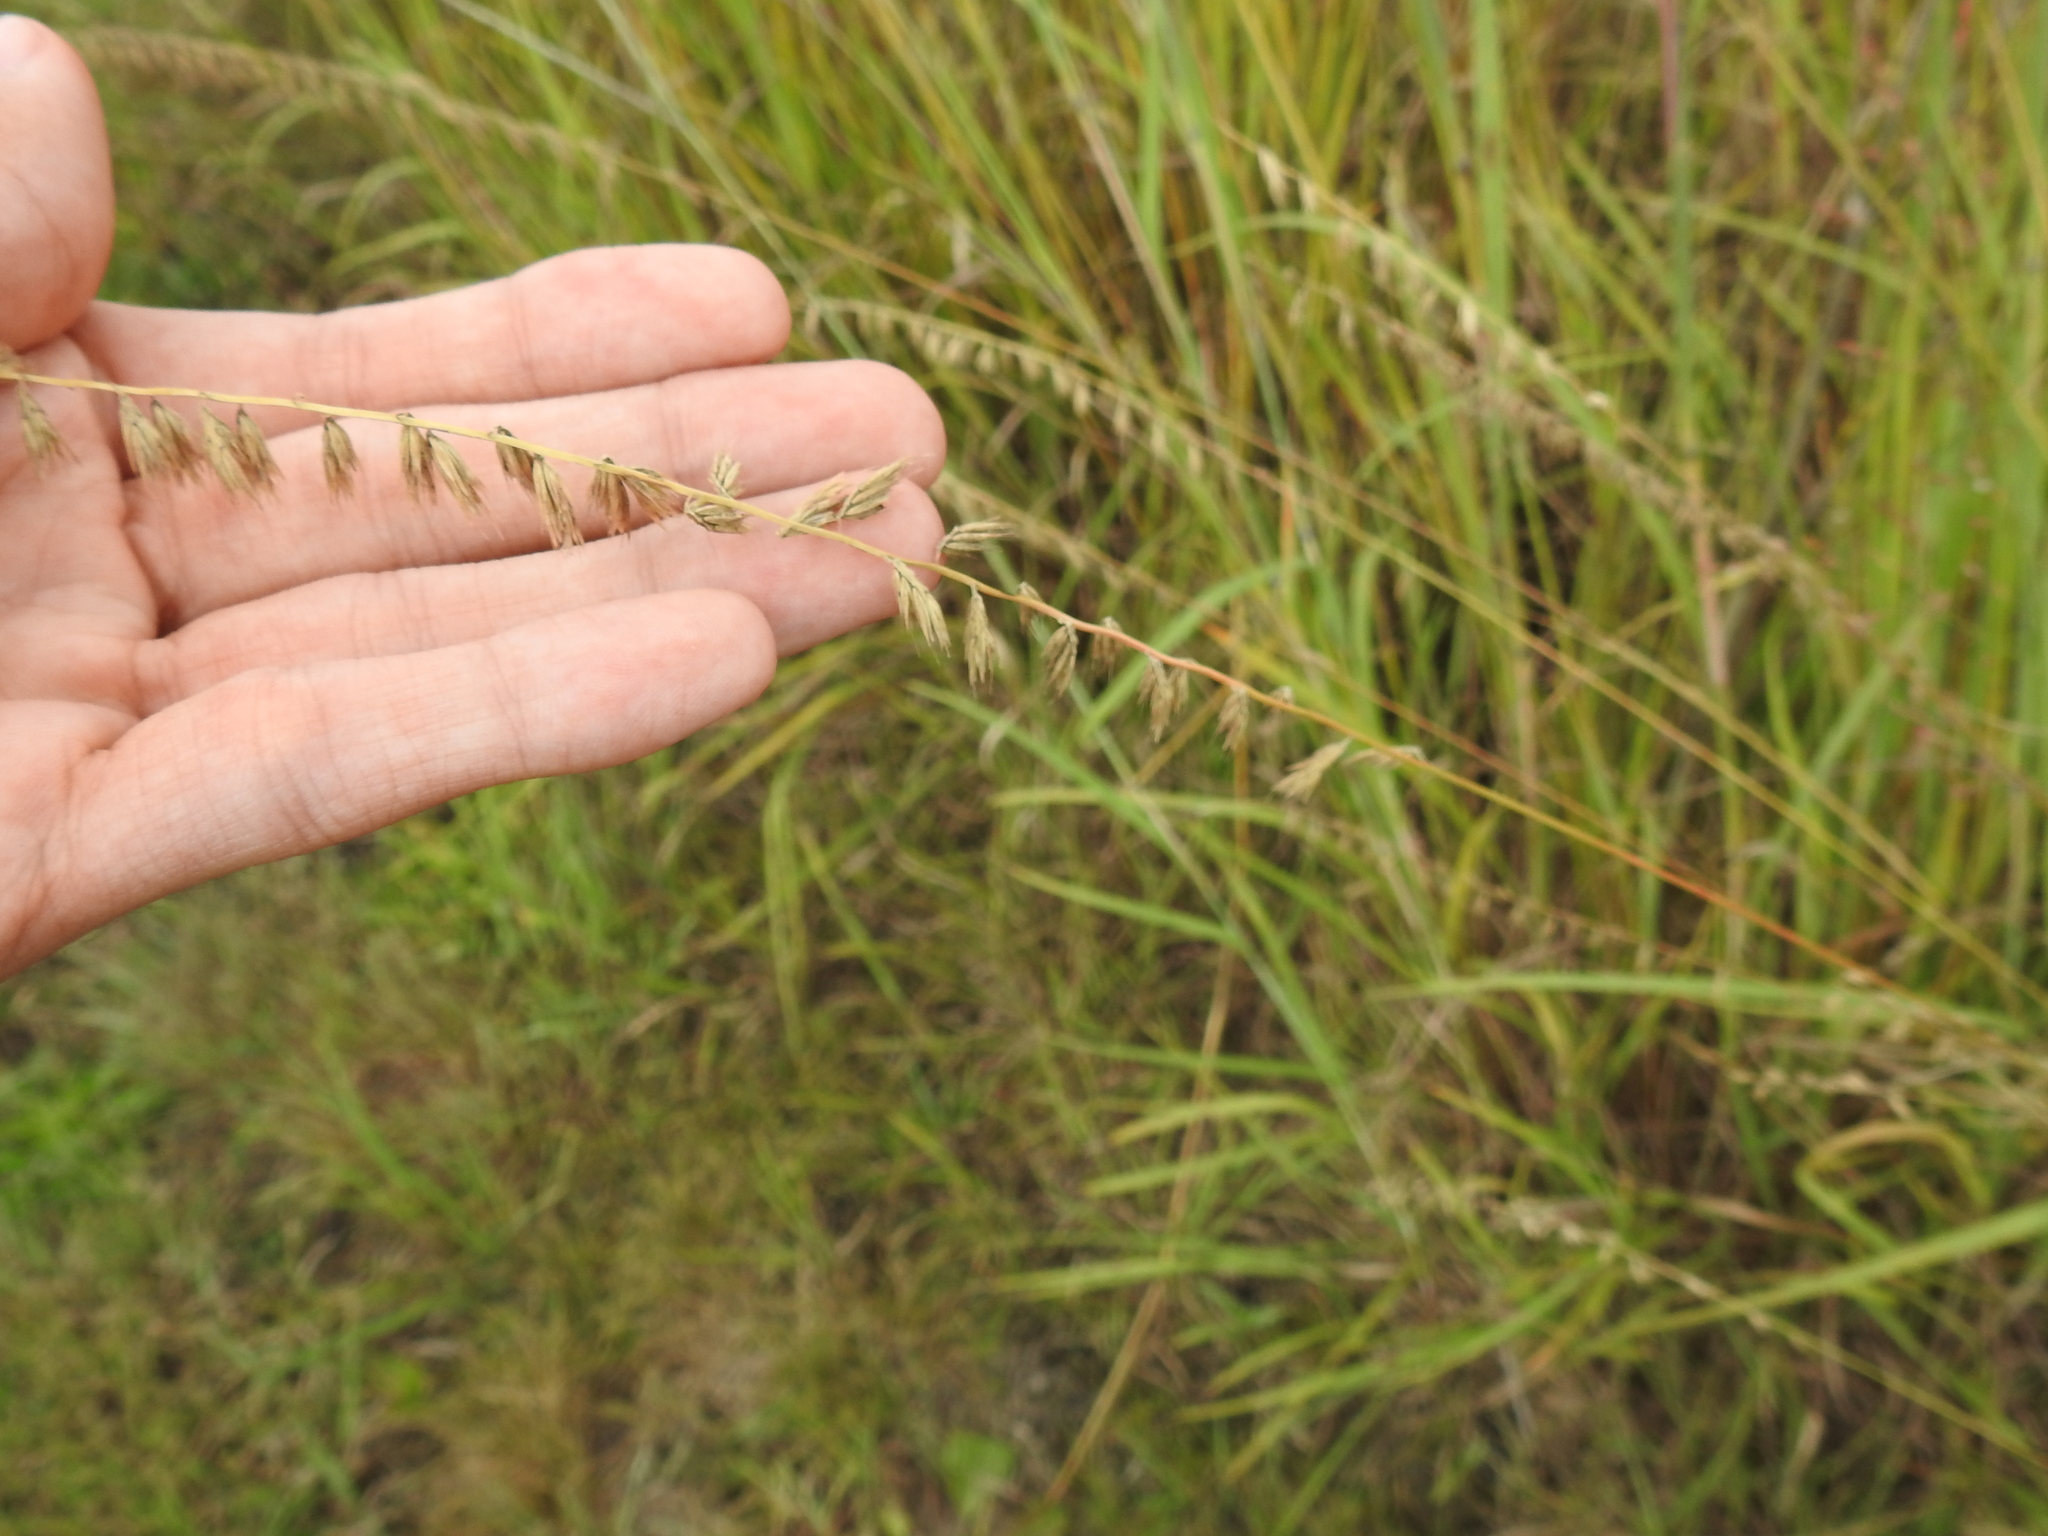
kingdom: Plantae
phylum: Tracheophyta
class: Liliopsida
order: Poales
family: Poaceae
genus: Bouteloua
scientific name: Bouteloua curtipendula
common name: Side-oats grama
